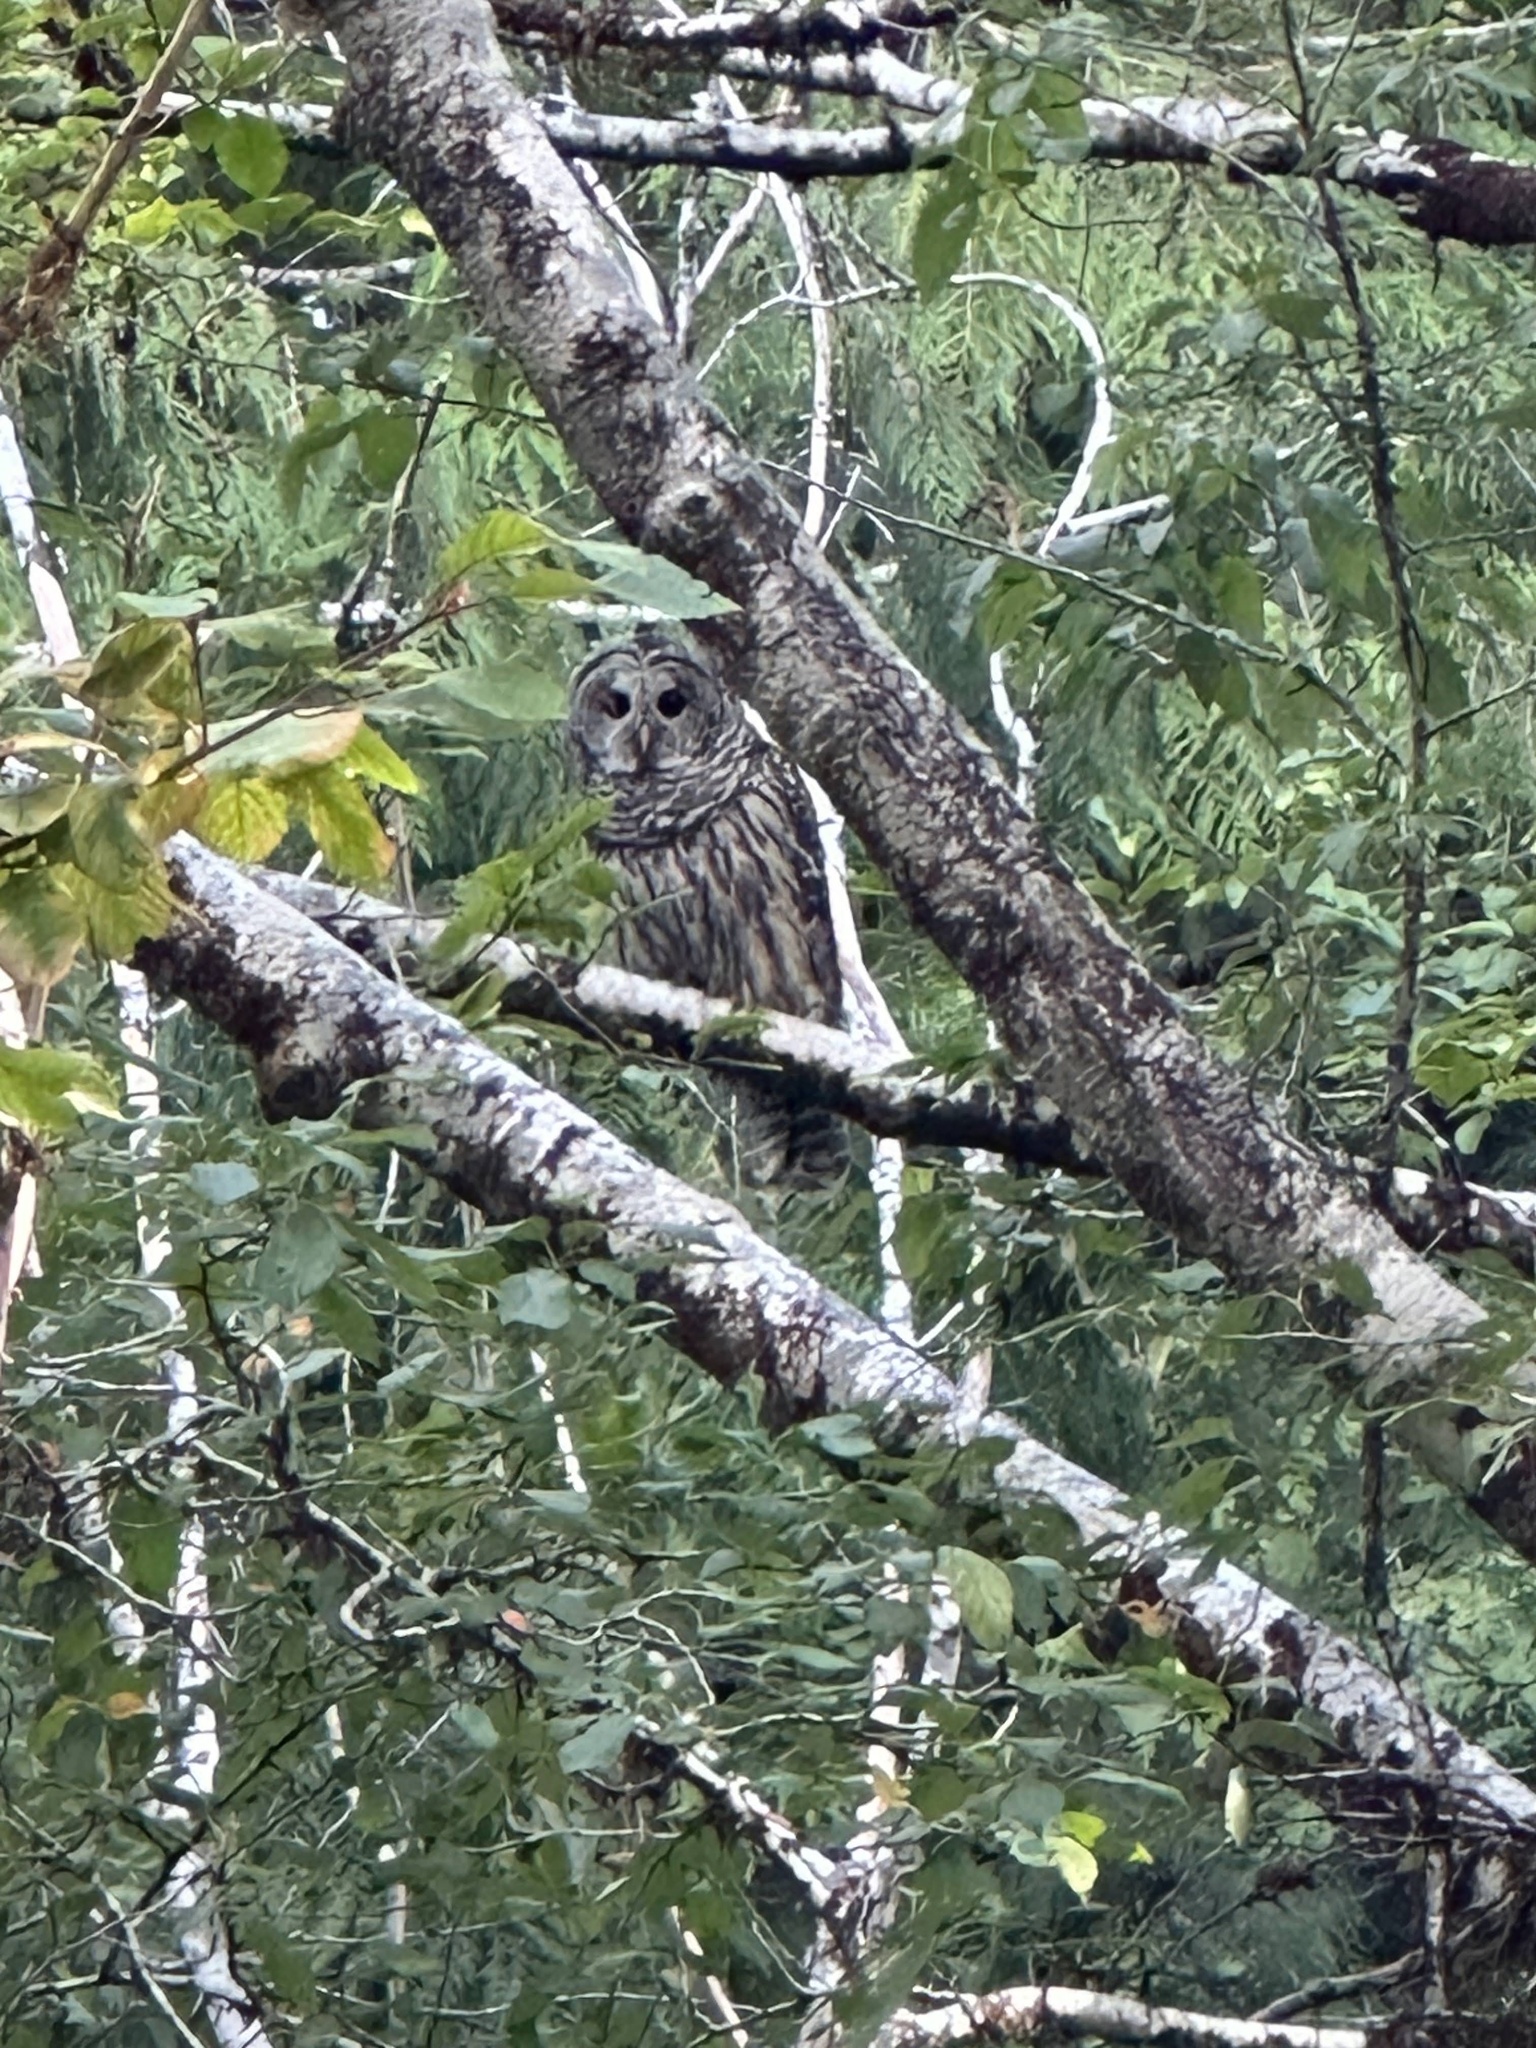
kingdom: Animalia
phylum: Chordata
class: Aves
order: Strigiformes
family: Strigidae
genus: Strix
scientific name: Strix varia
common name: Barred owl
